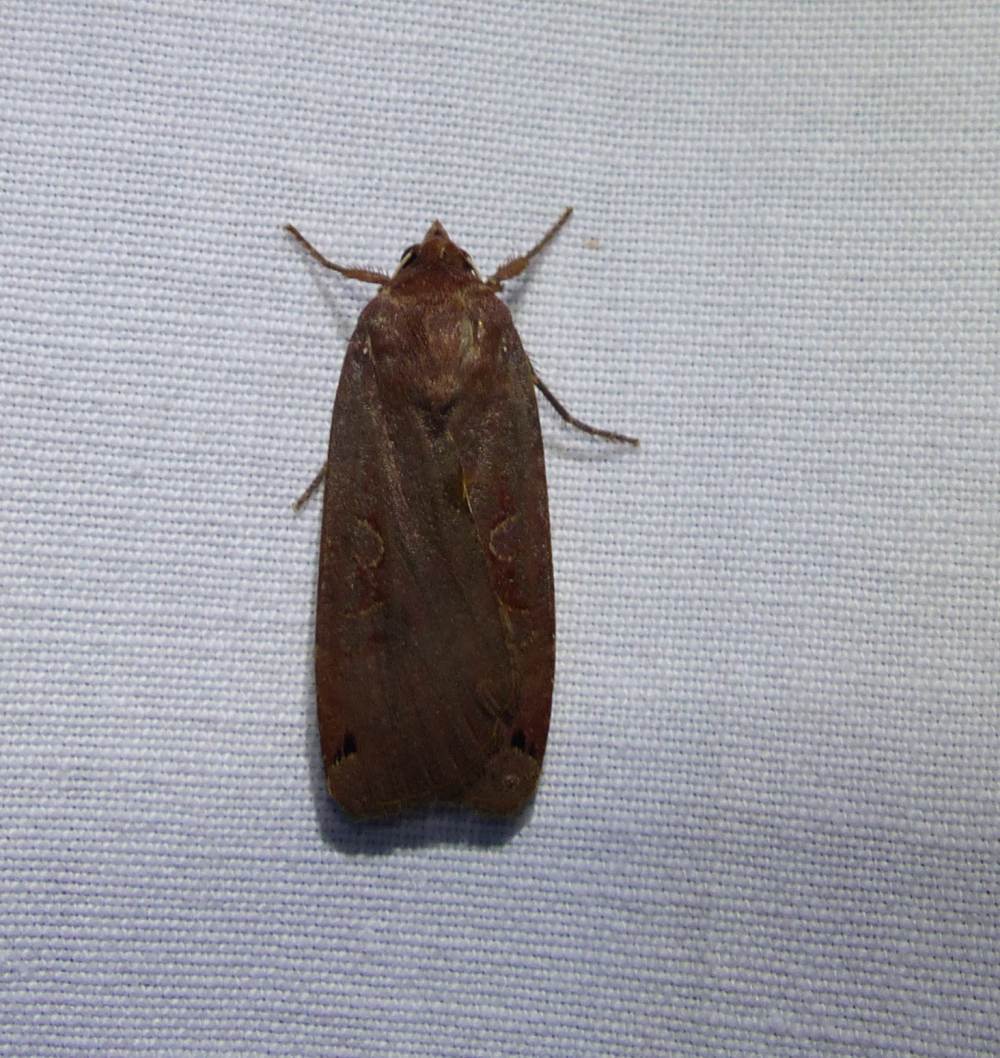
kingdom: Animalia
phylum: Arthropoda
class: Insecta
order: Lepidoptera
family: Noctuidae
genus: Noctua
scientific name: Noctua pronuba
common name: Large yellow underwing
